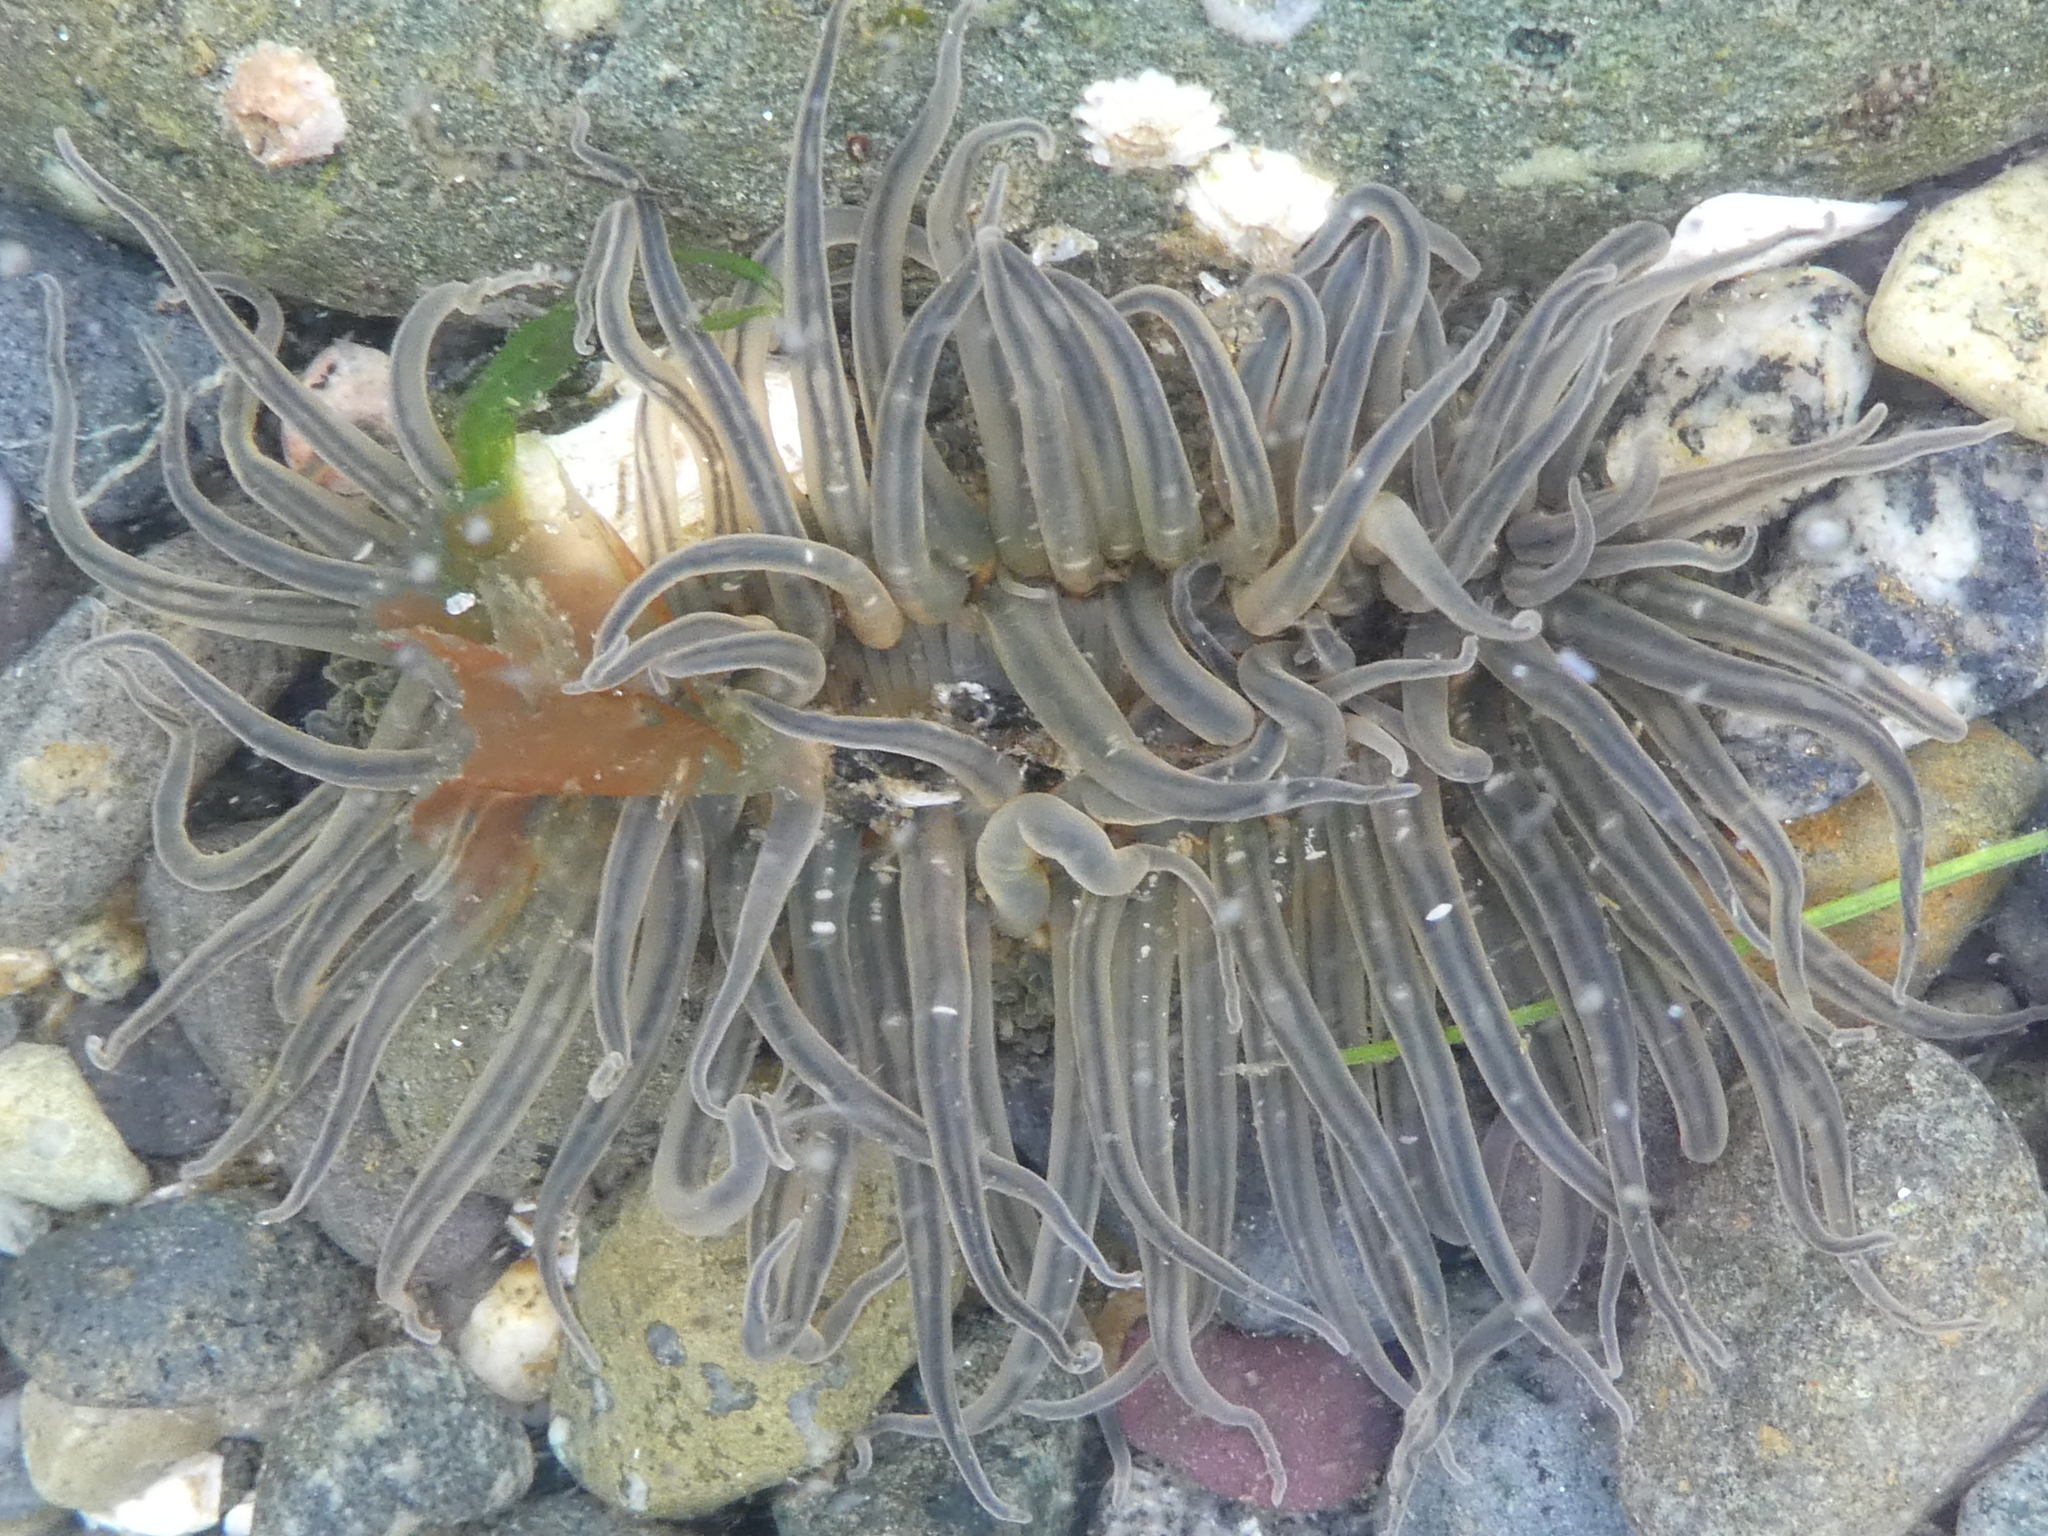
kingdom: Animalia
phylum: Cnidaria
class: Anthozoa
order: Actiniaria
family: Actiniidae
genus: Anthopleura
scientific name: Anthopleura artemisia
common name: Buried sea anemone
